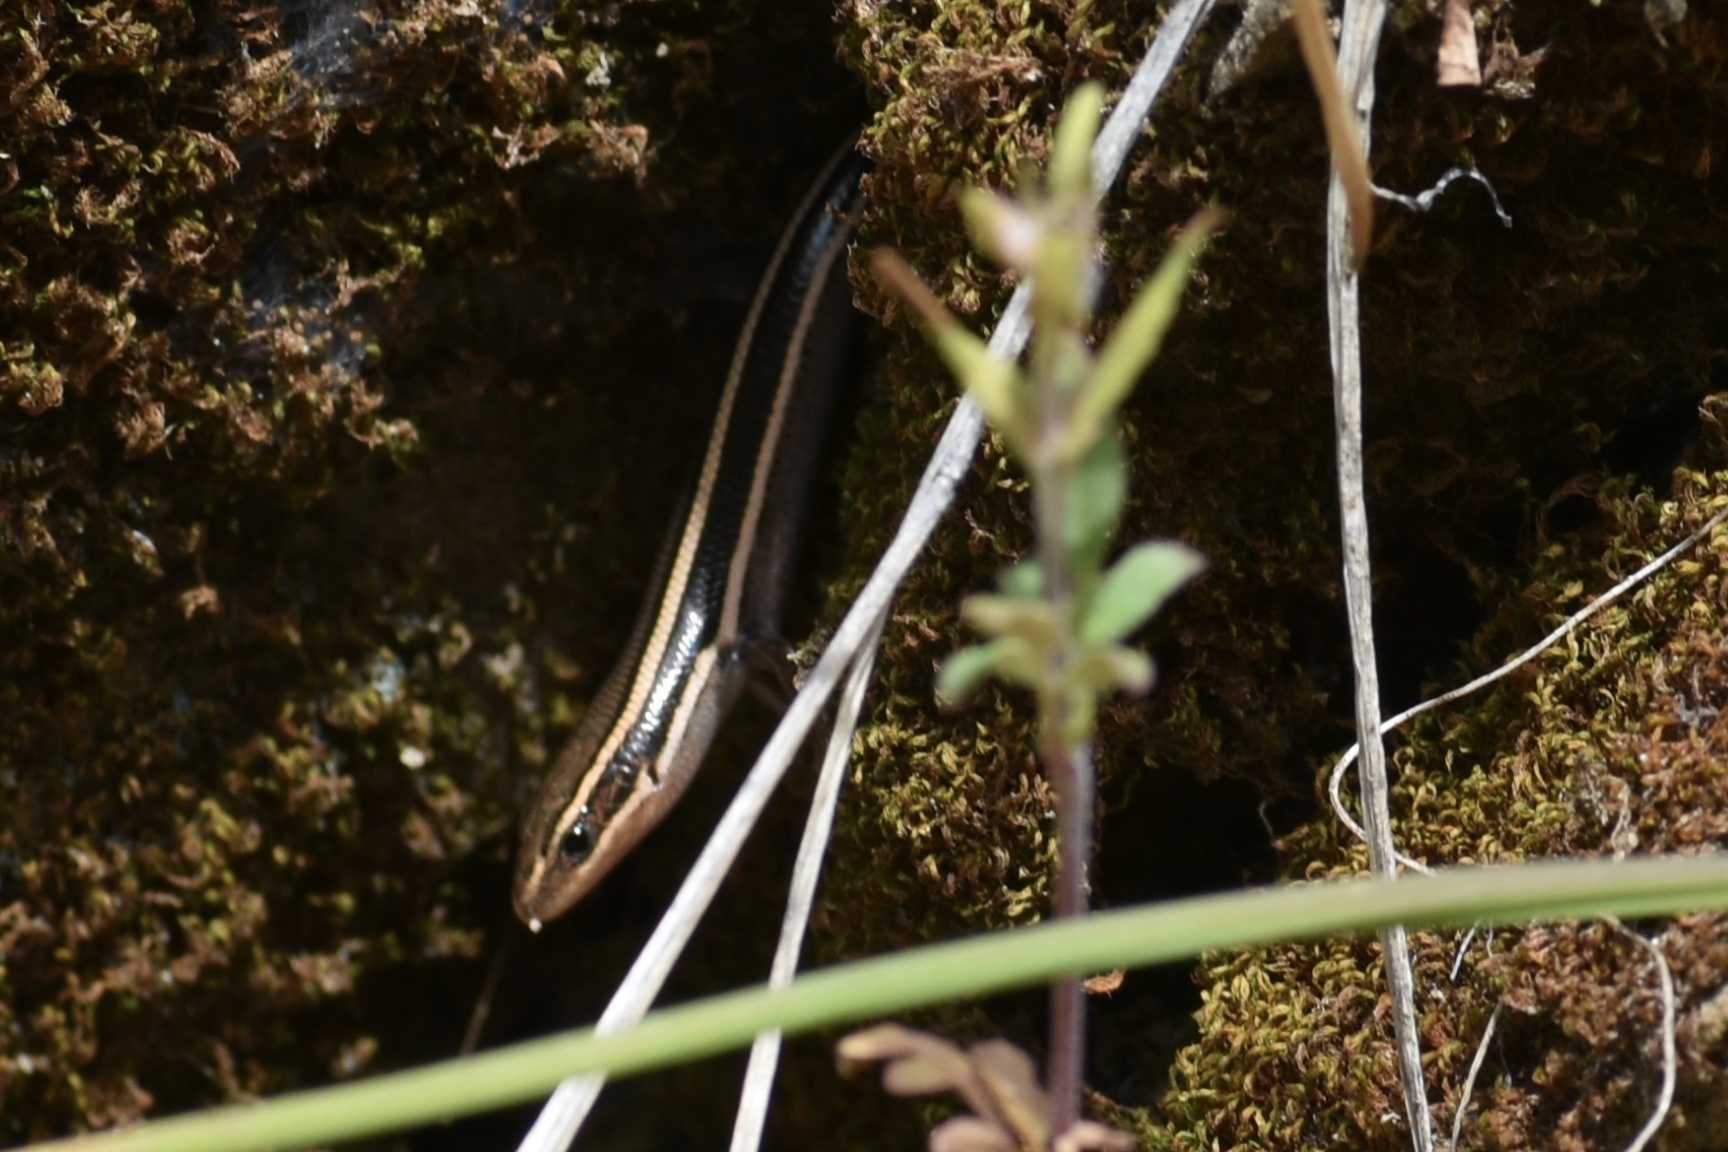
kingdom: Animalia
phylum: Chordata
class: Squamata
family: Scincidae
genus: Plestiodon
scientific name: Plestiodon skiltonianus
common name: Coronado island skink [interparietalis]
